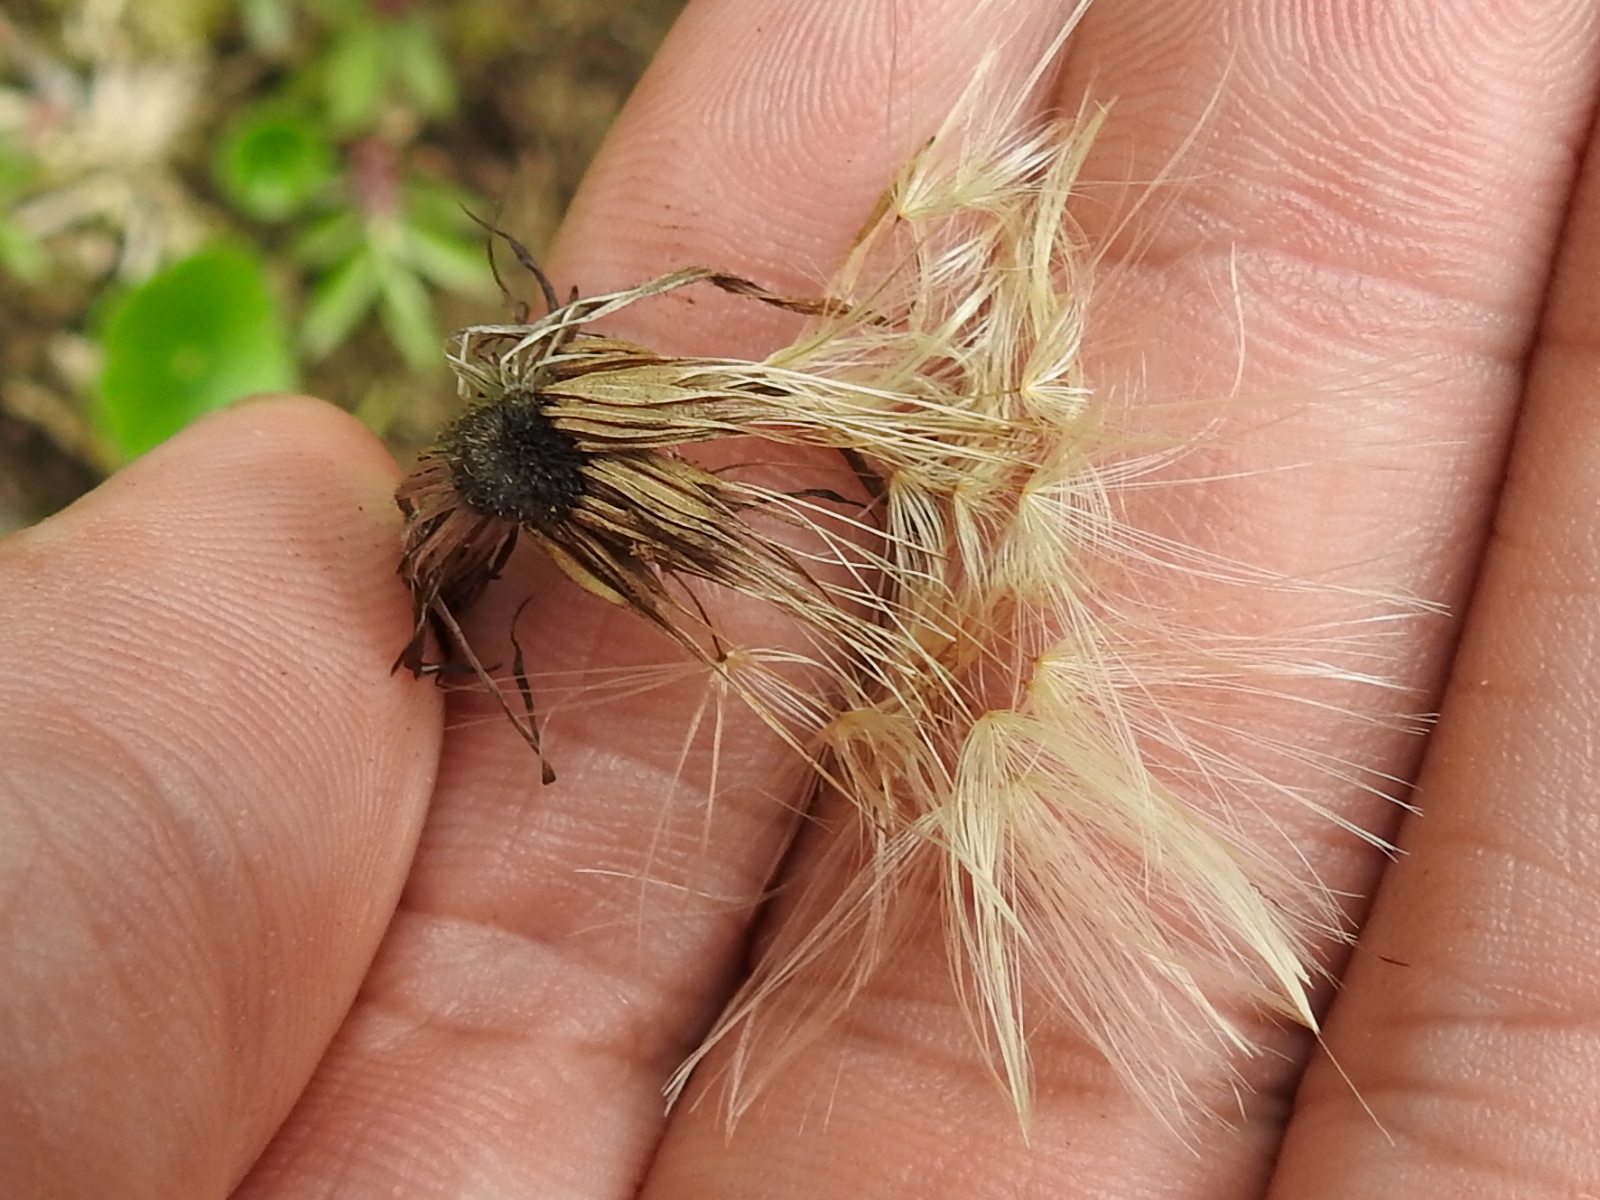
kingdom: Plantae
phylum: Tracheophyta
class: Magnoliopsida
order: Asterales
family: Asteraceae
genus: Chaptalia
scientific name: Chaptalia nutans
